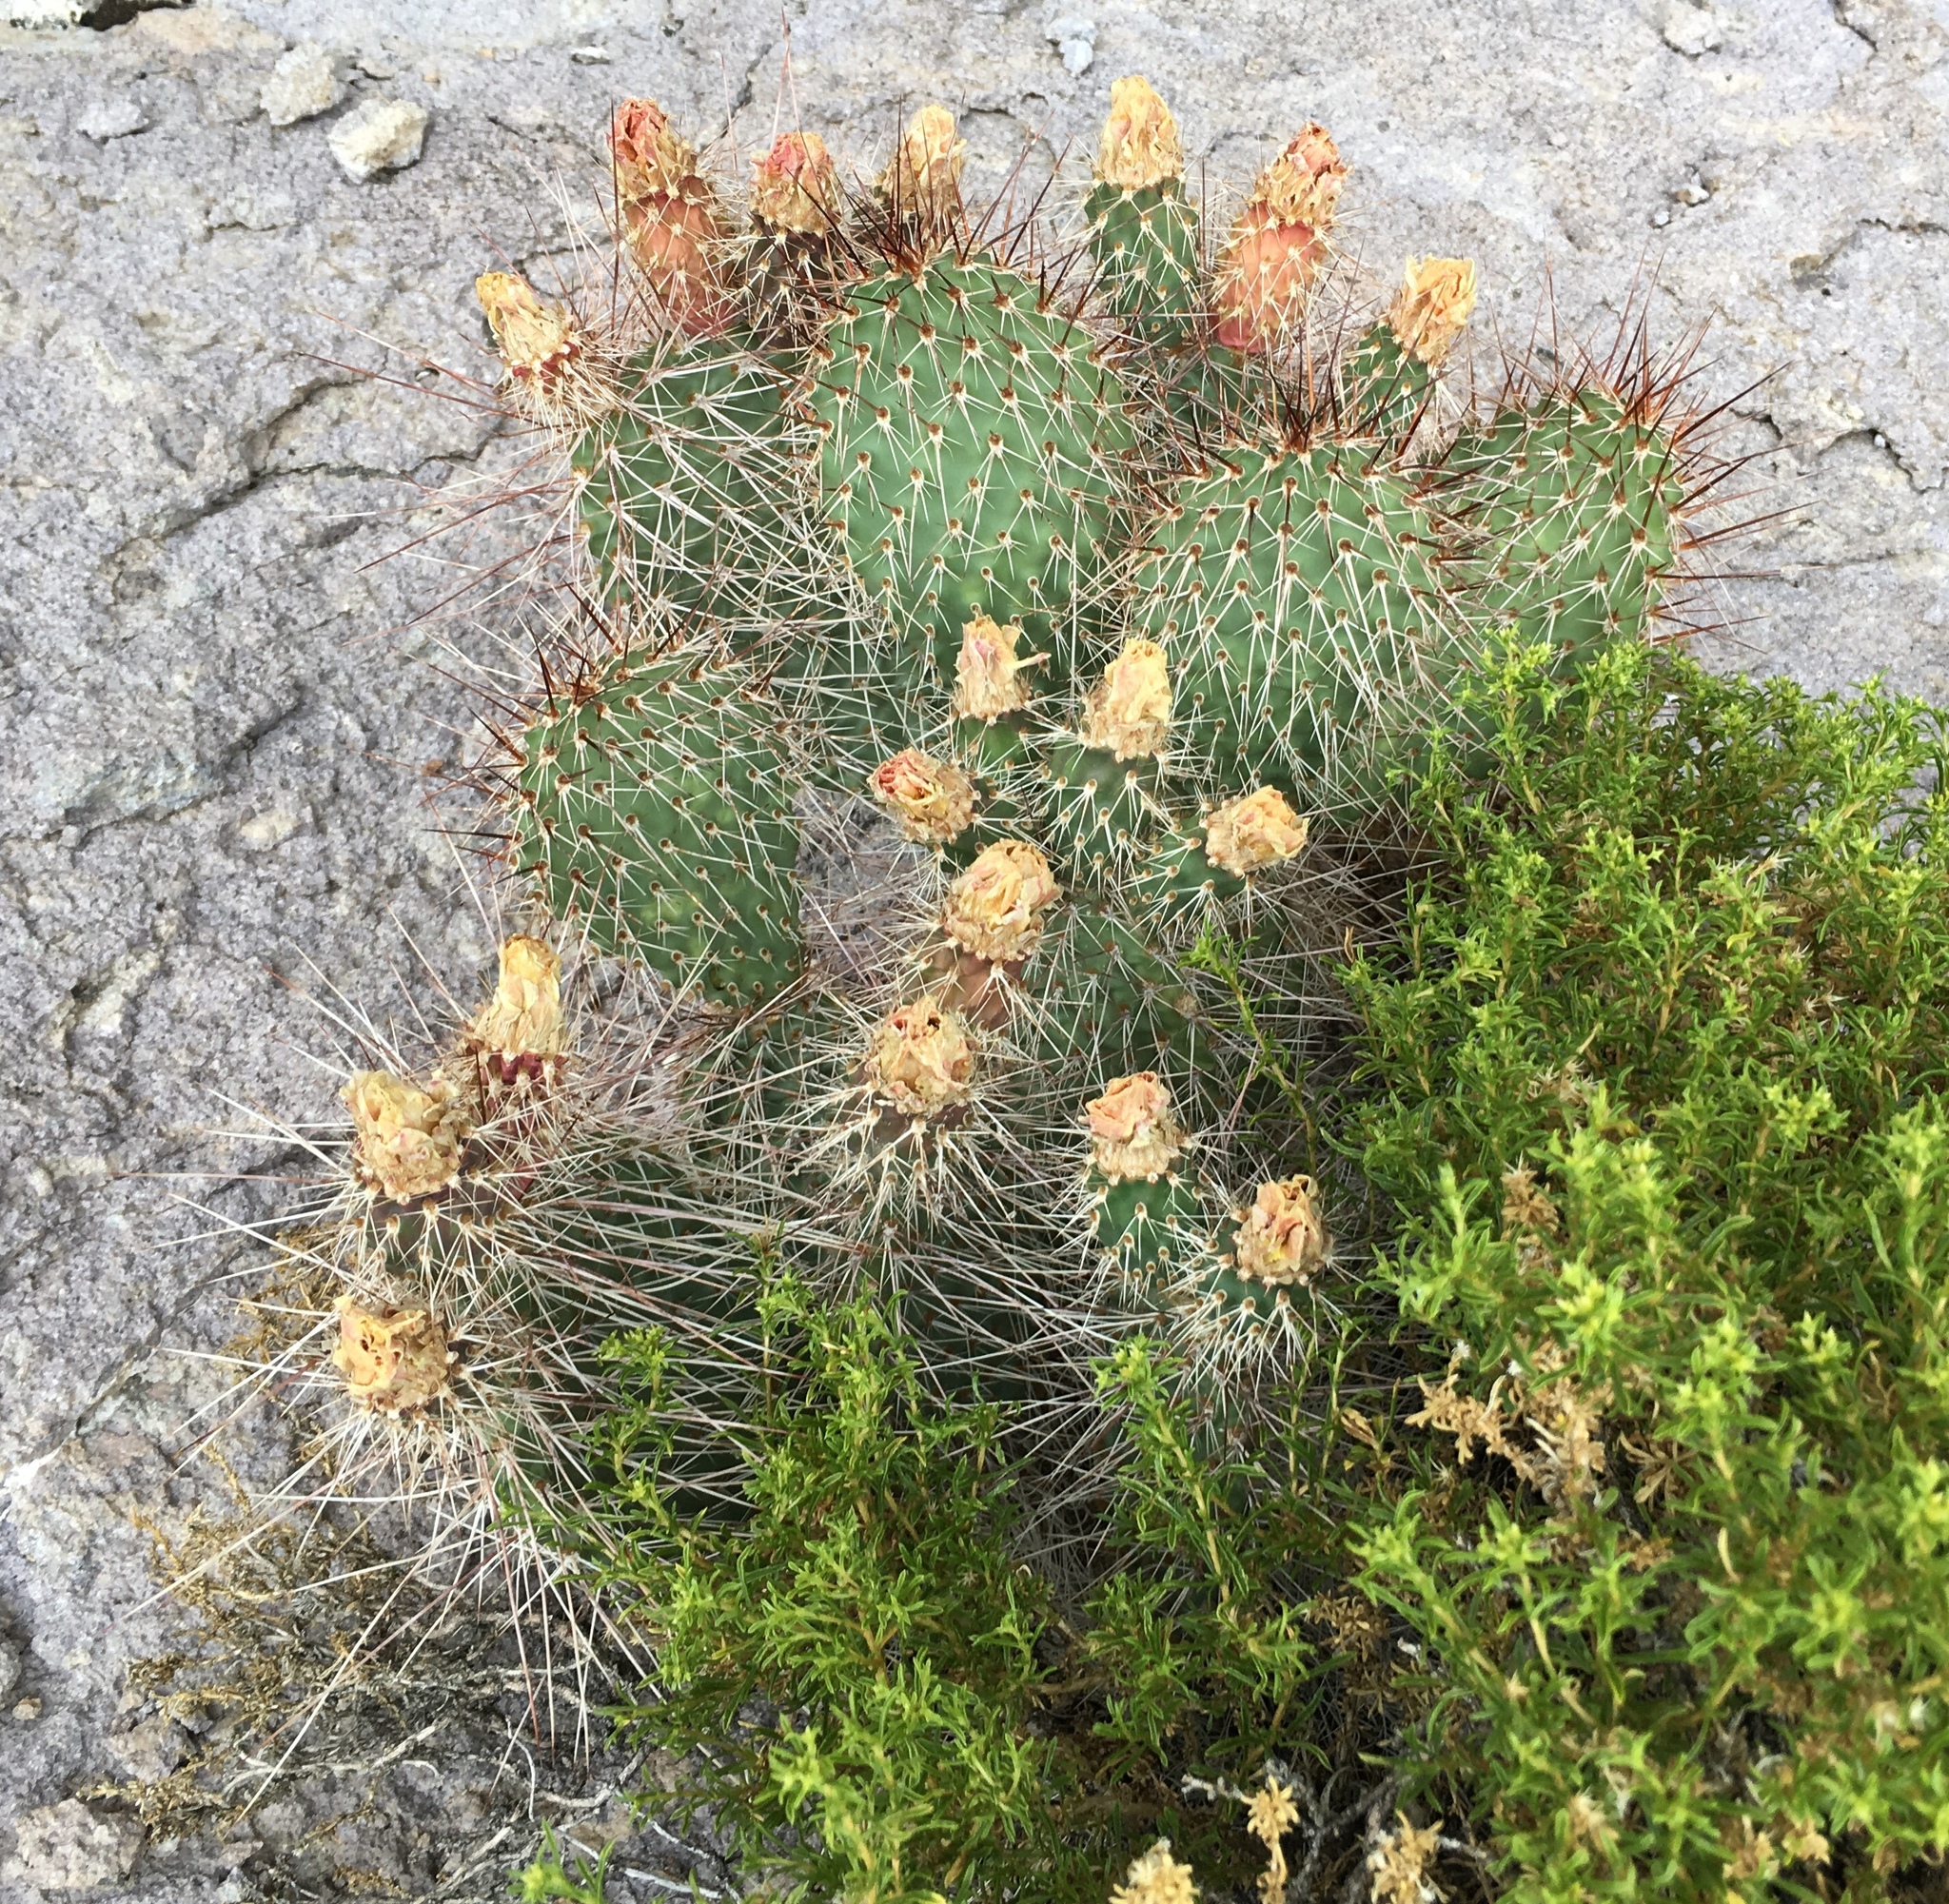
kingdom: Plantae
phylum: Tracheophyta
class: Magnoliopsida
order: Caryophyllales
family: Cactaceae
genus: Opuntia
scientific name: Opuntia polyacantha
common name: Plains prickly-pear
